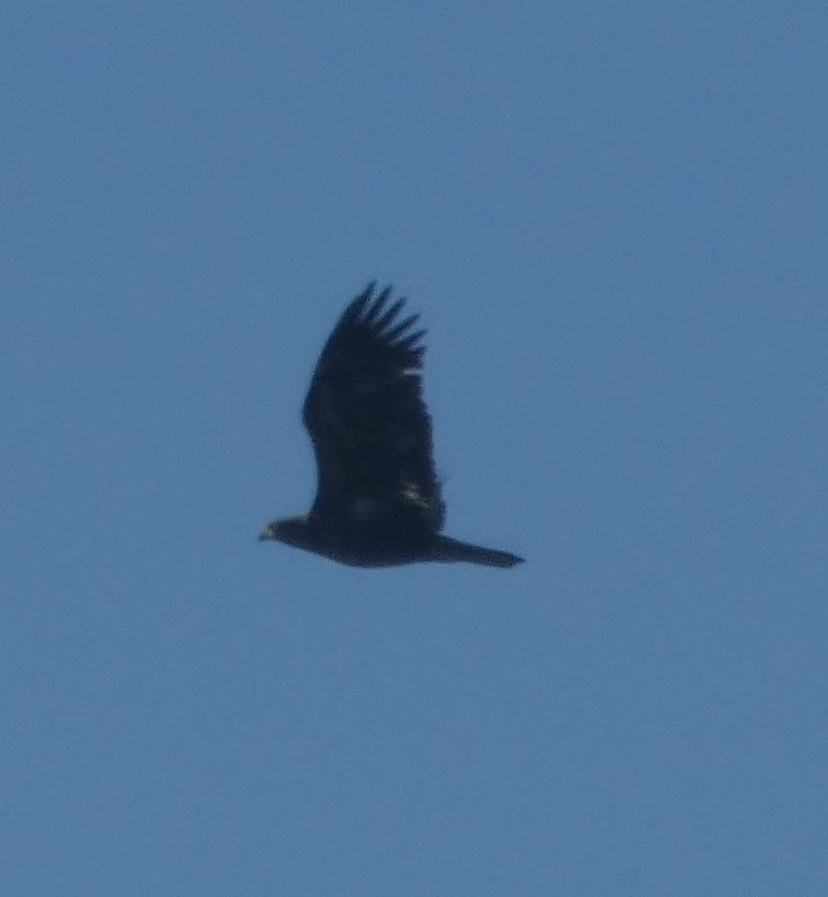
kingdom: Animalia
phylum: Chordata
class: Aves
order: Accipitriformes
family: Accipitridae
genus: Haliaeetus
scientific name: Haliaeetus leucocephalus
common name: Bald eagle
